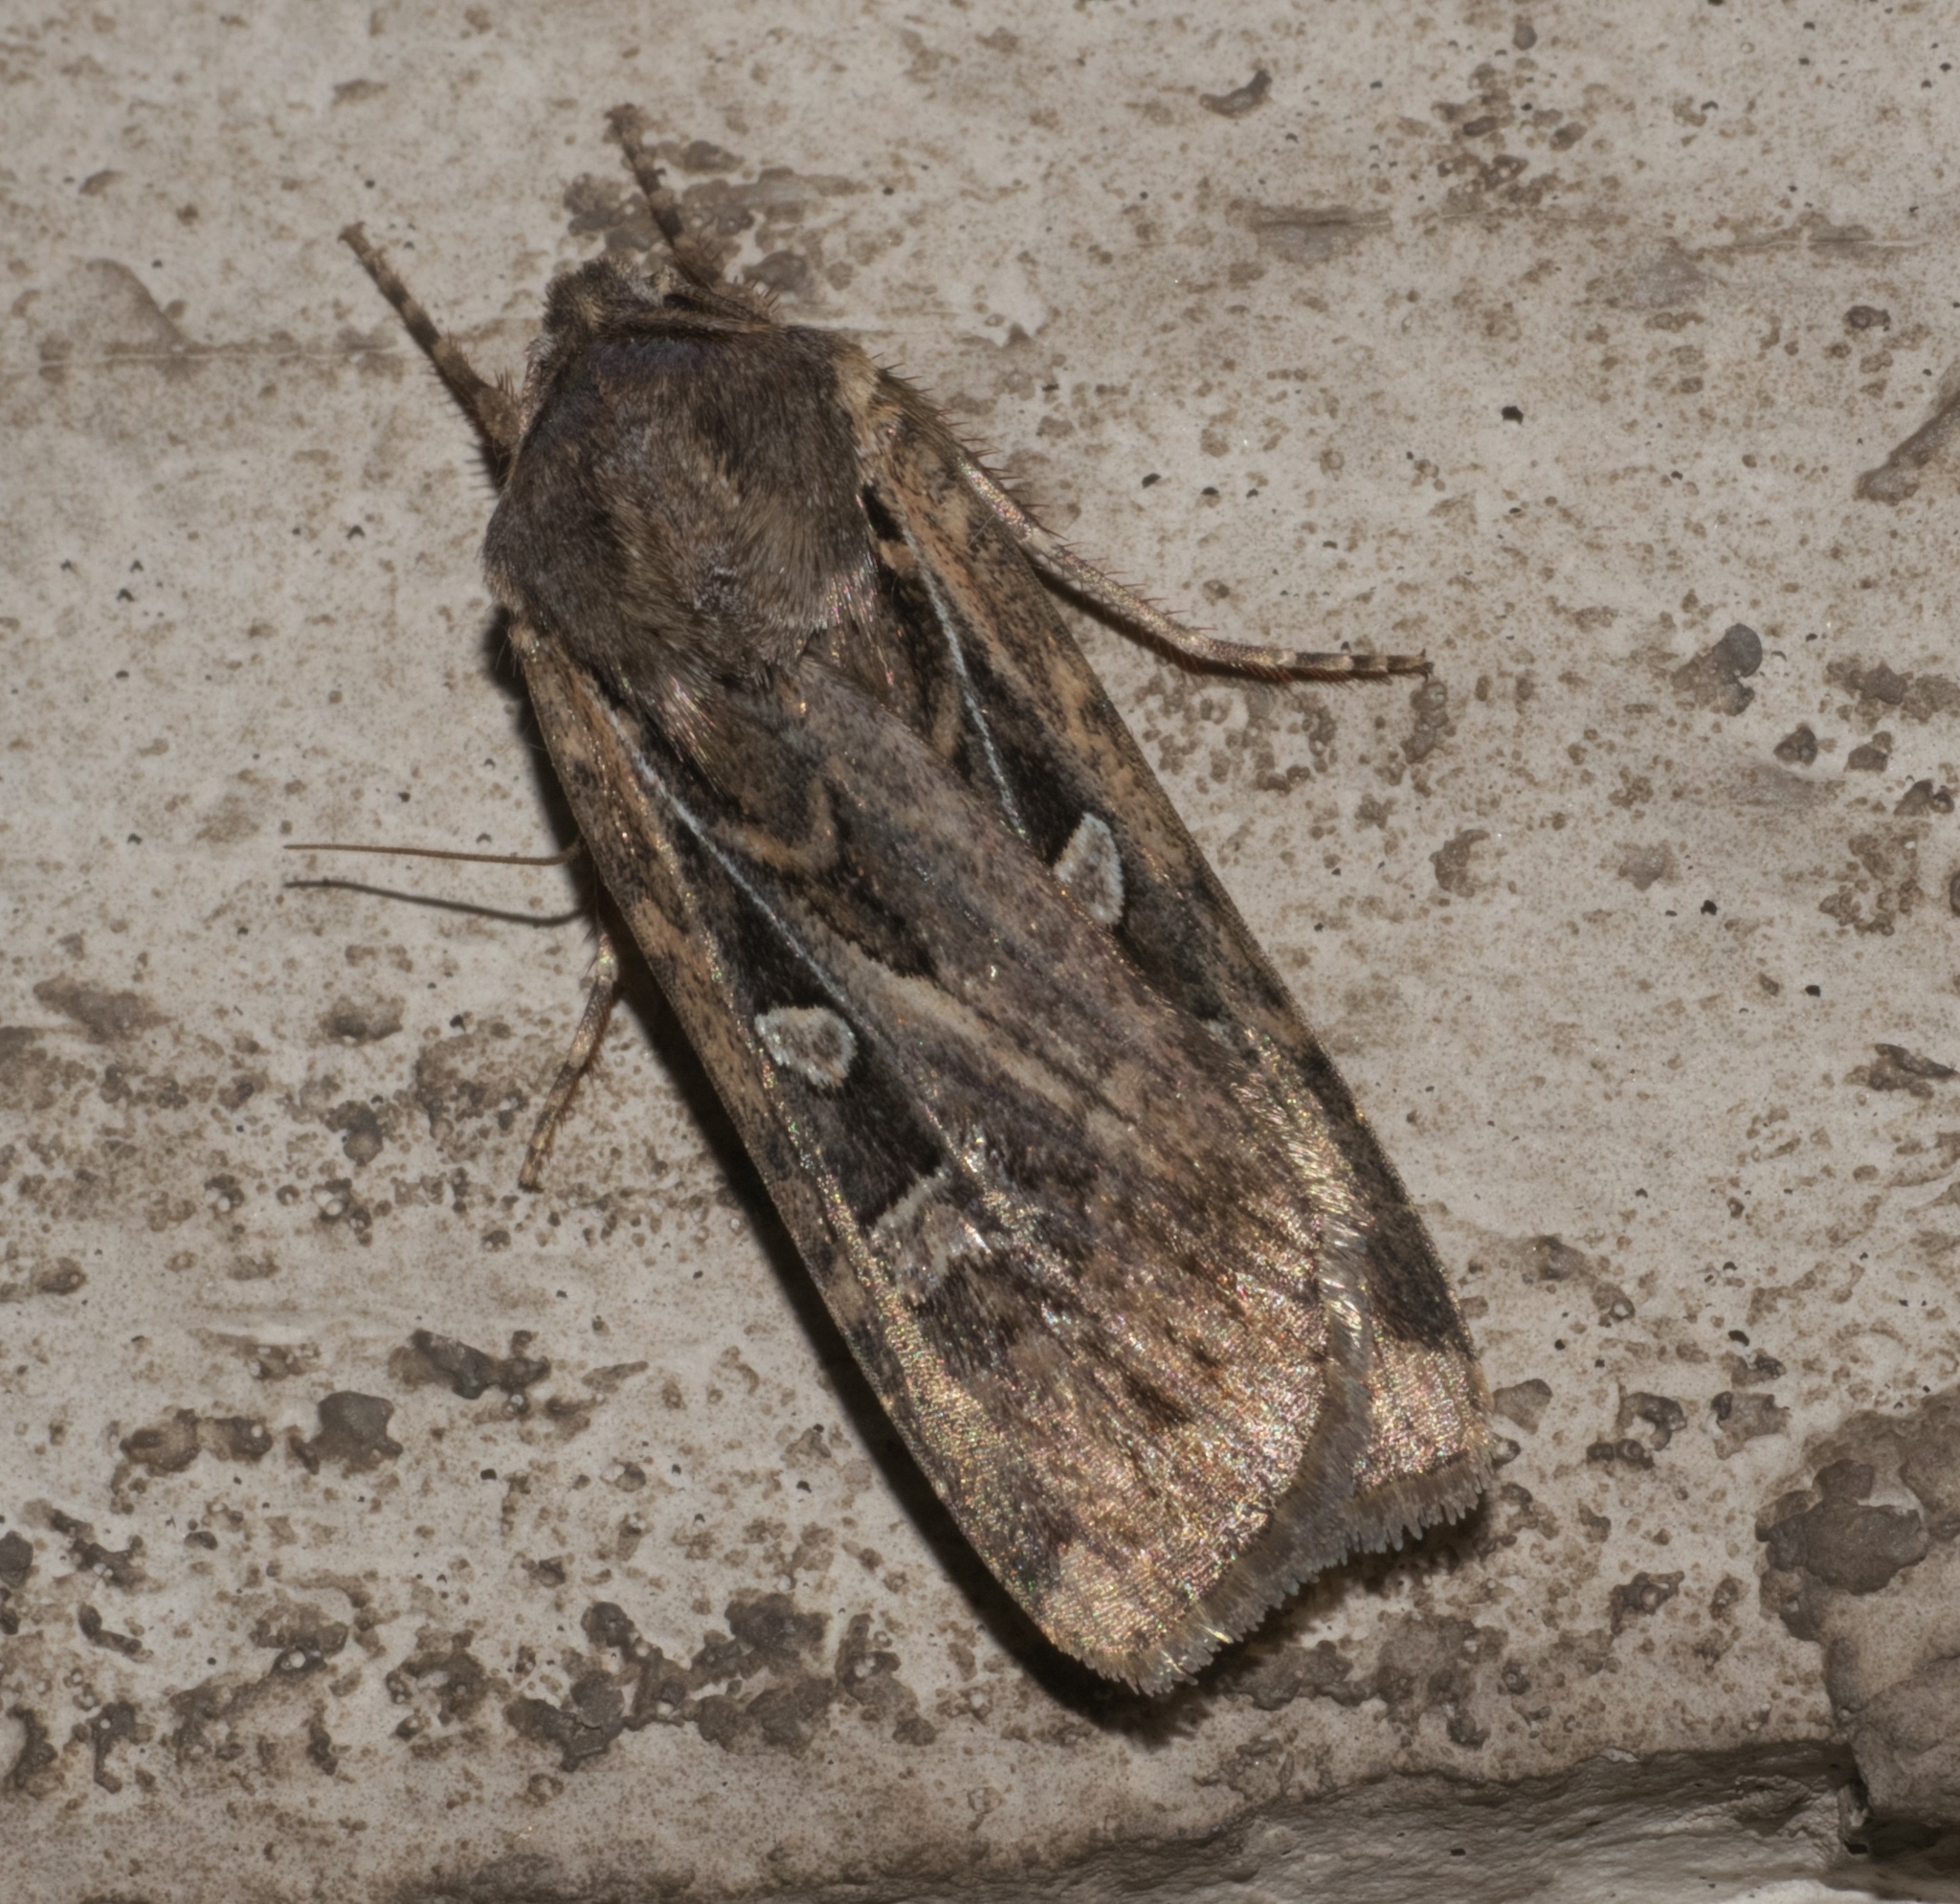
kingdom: Animalia
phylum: Arthropoda
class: Insecta
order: Lepidoptera
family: Noctuidae
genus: Euxoa
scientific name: Euxoa auxiliaris
